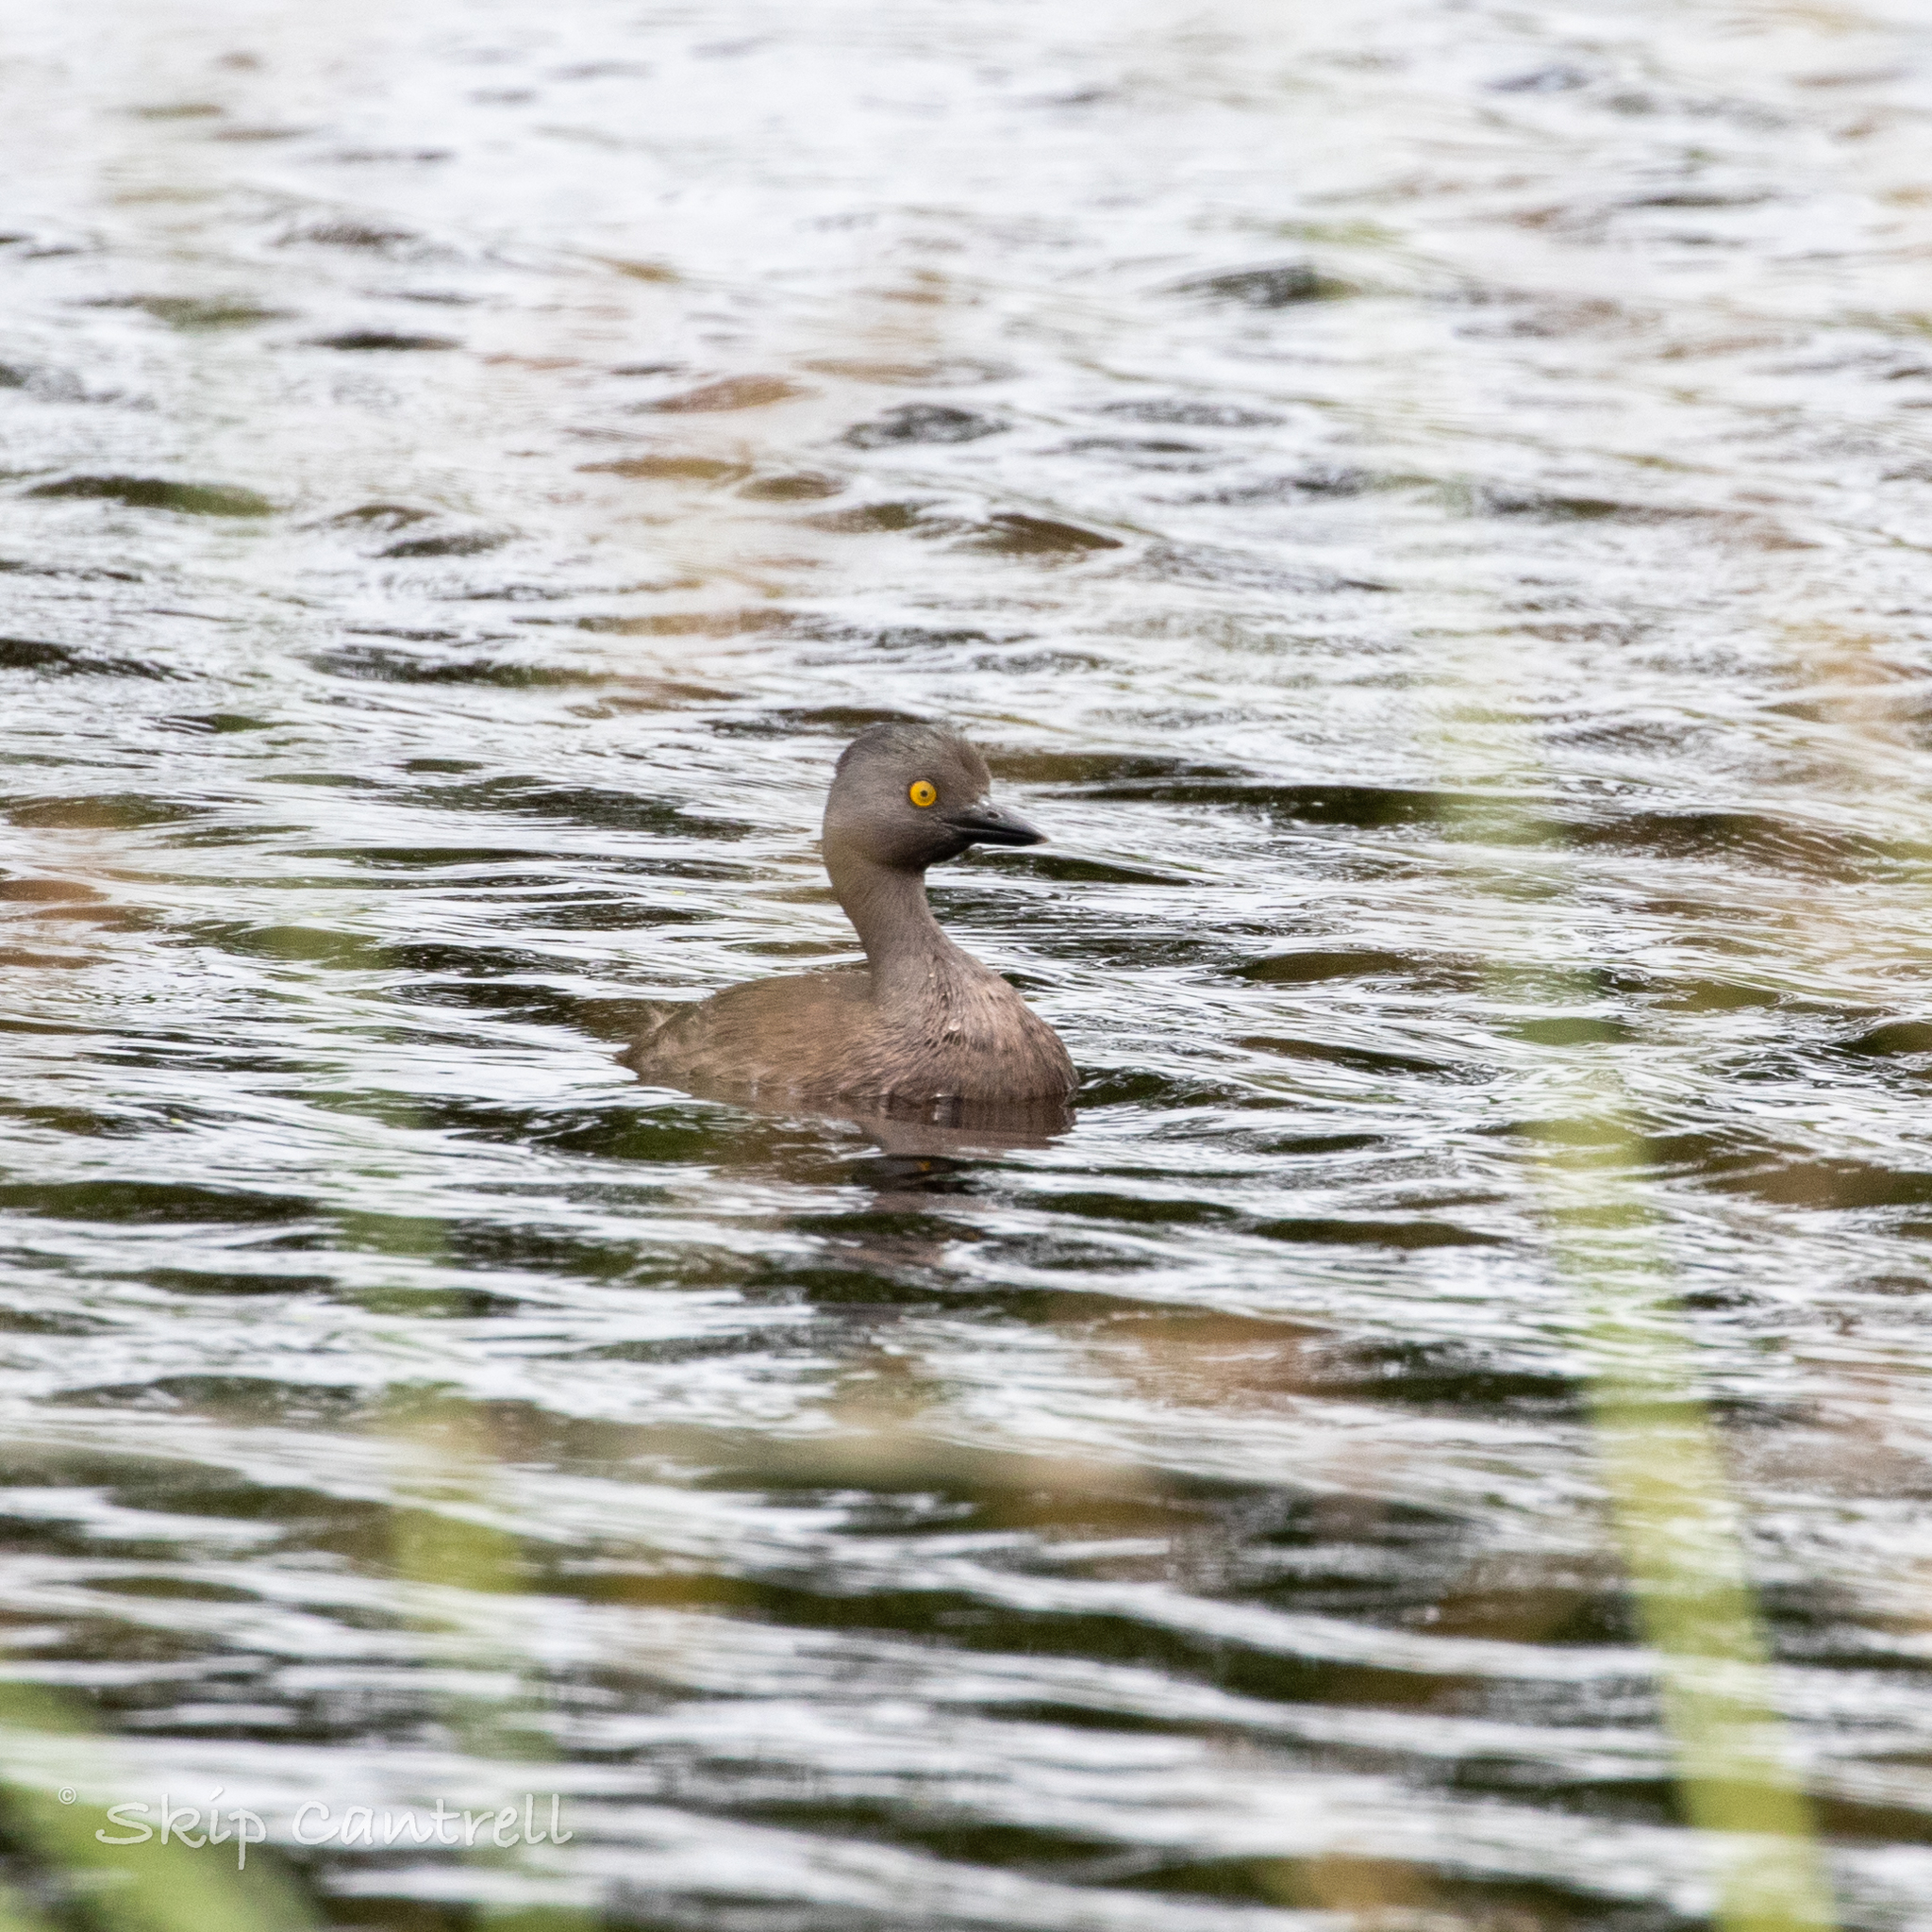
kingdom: Animalia
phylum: Chordata
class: Aves
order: Podicipediformes
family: Podicipedidae
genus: Tachybaptus
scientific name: Tachybaptus dominicus
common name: Least grebe
